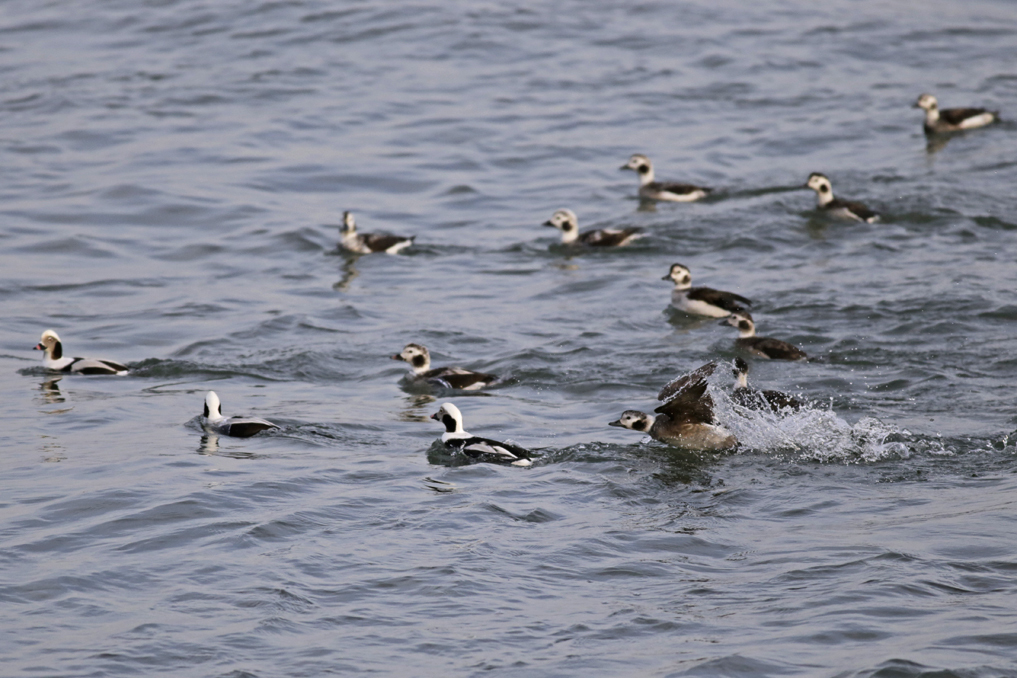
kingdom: Animalia
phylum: Chordata
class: Aves
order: Anseriformes
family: Anatidae
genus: Clangula
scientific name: Clangula hyemalis
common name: Long-tailed duck
